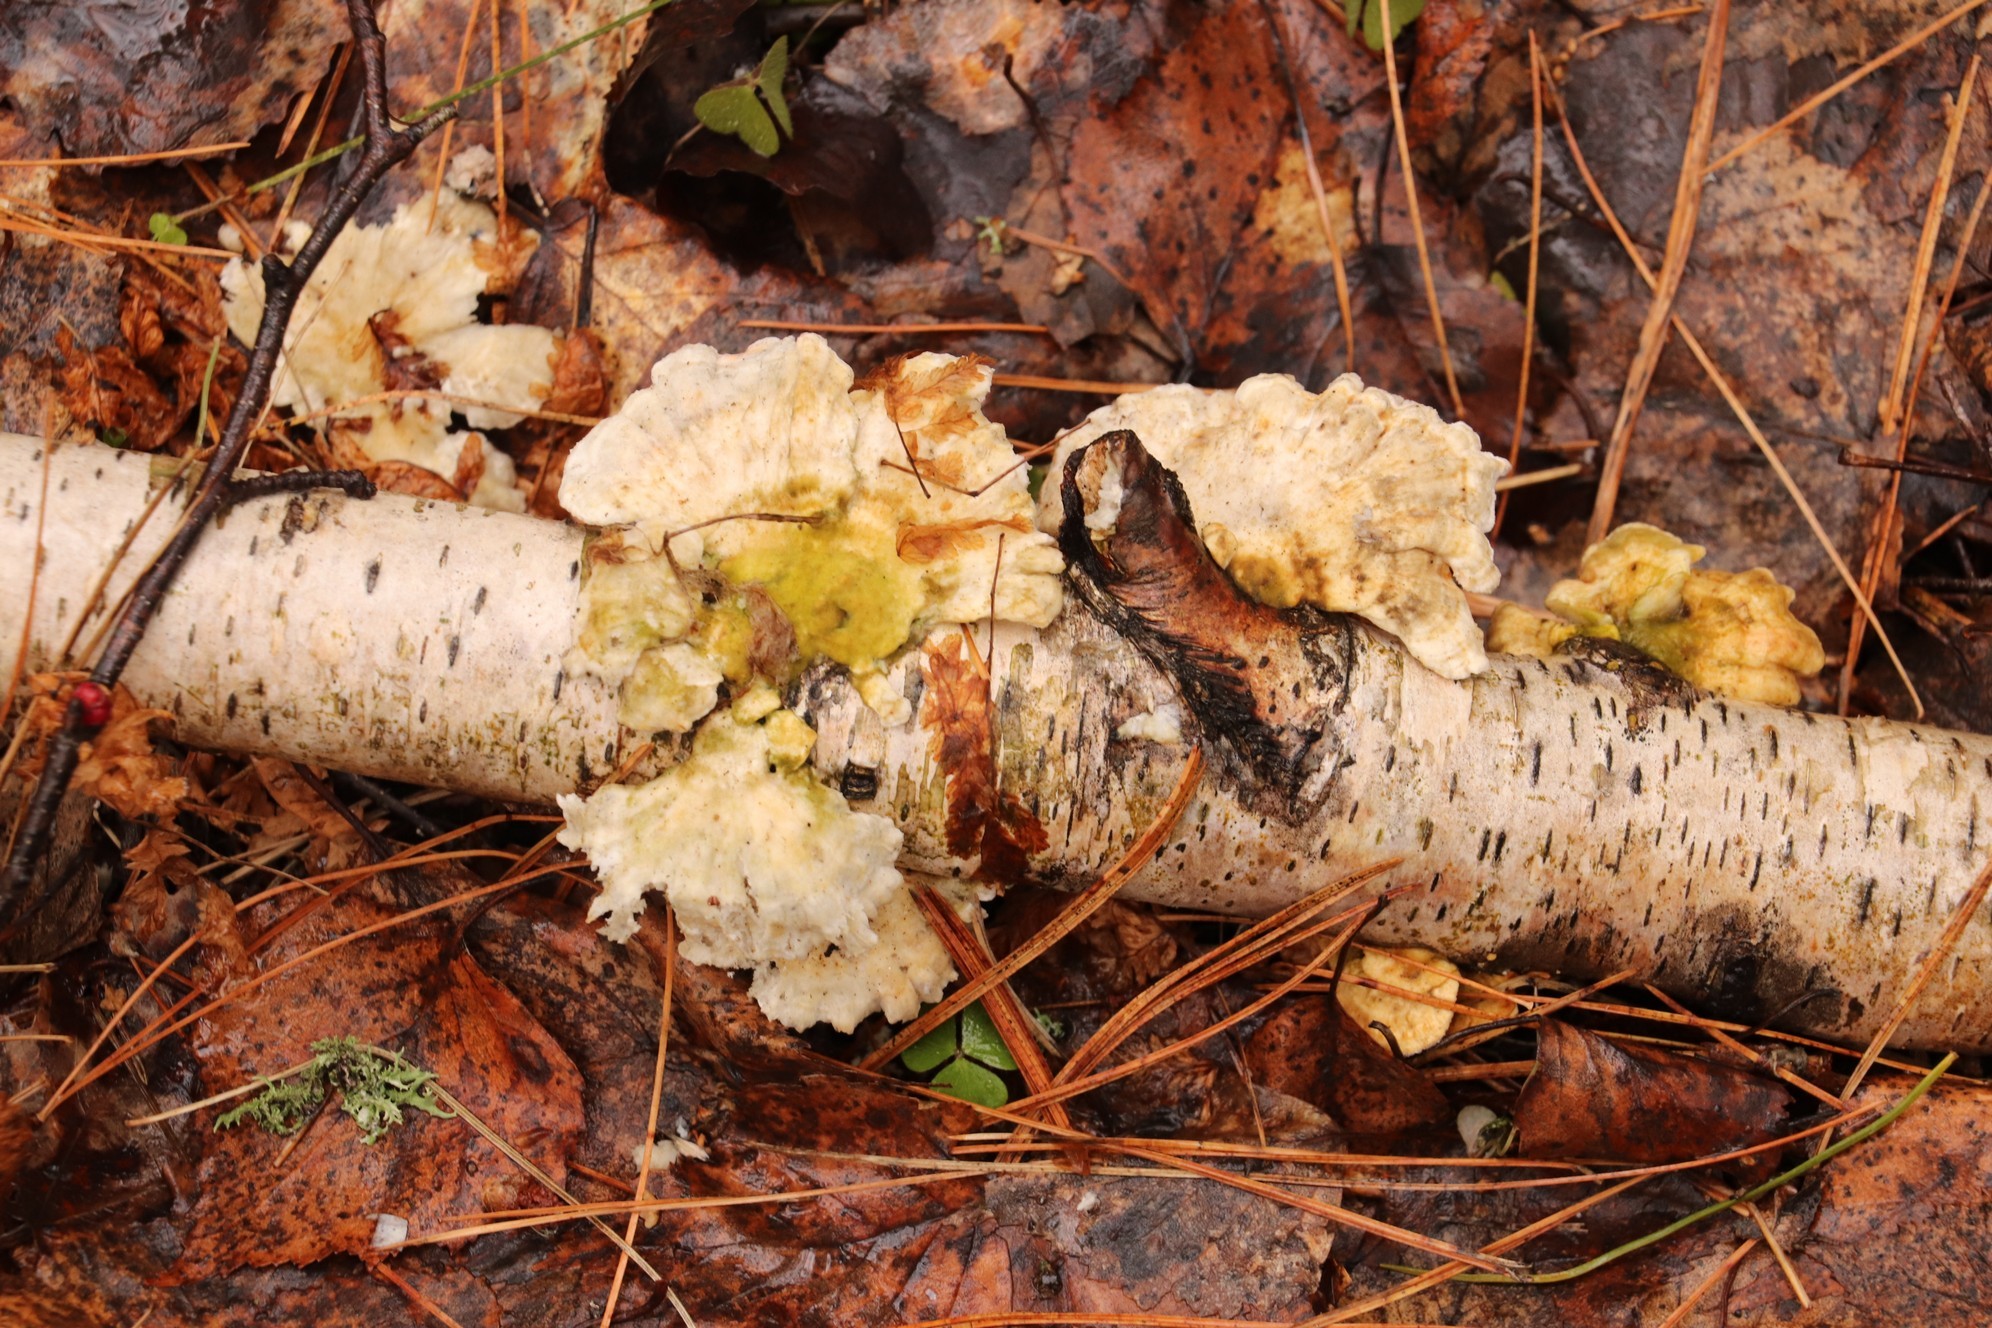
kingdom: Fungi
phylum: Basidiomycota
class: Agaricomycetes
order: Polyporales
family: Polyporaceae
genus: Trametes
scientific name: Trametes ochracea
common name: Ochre bracket
